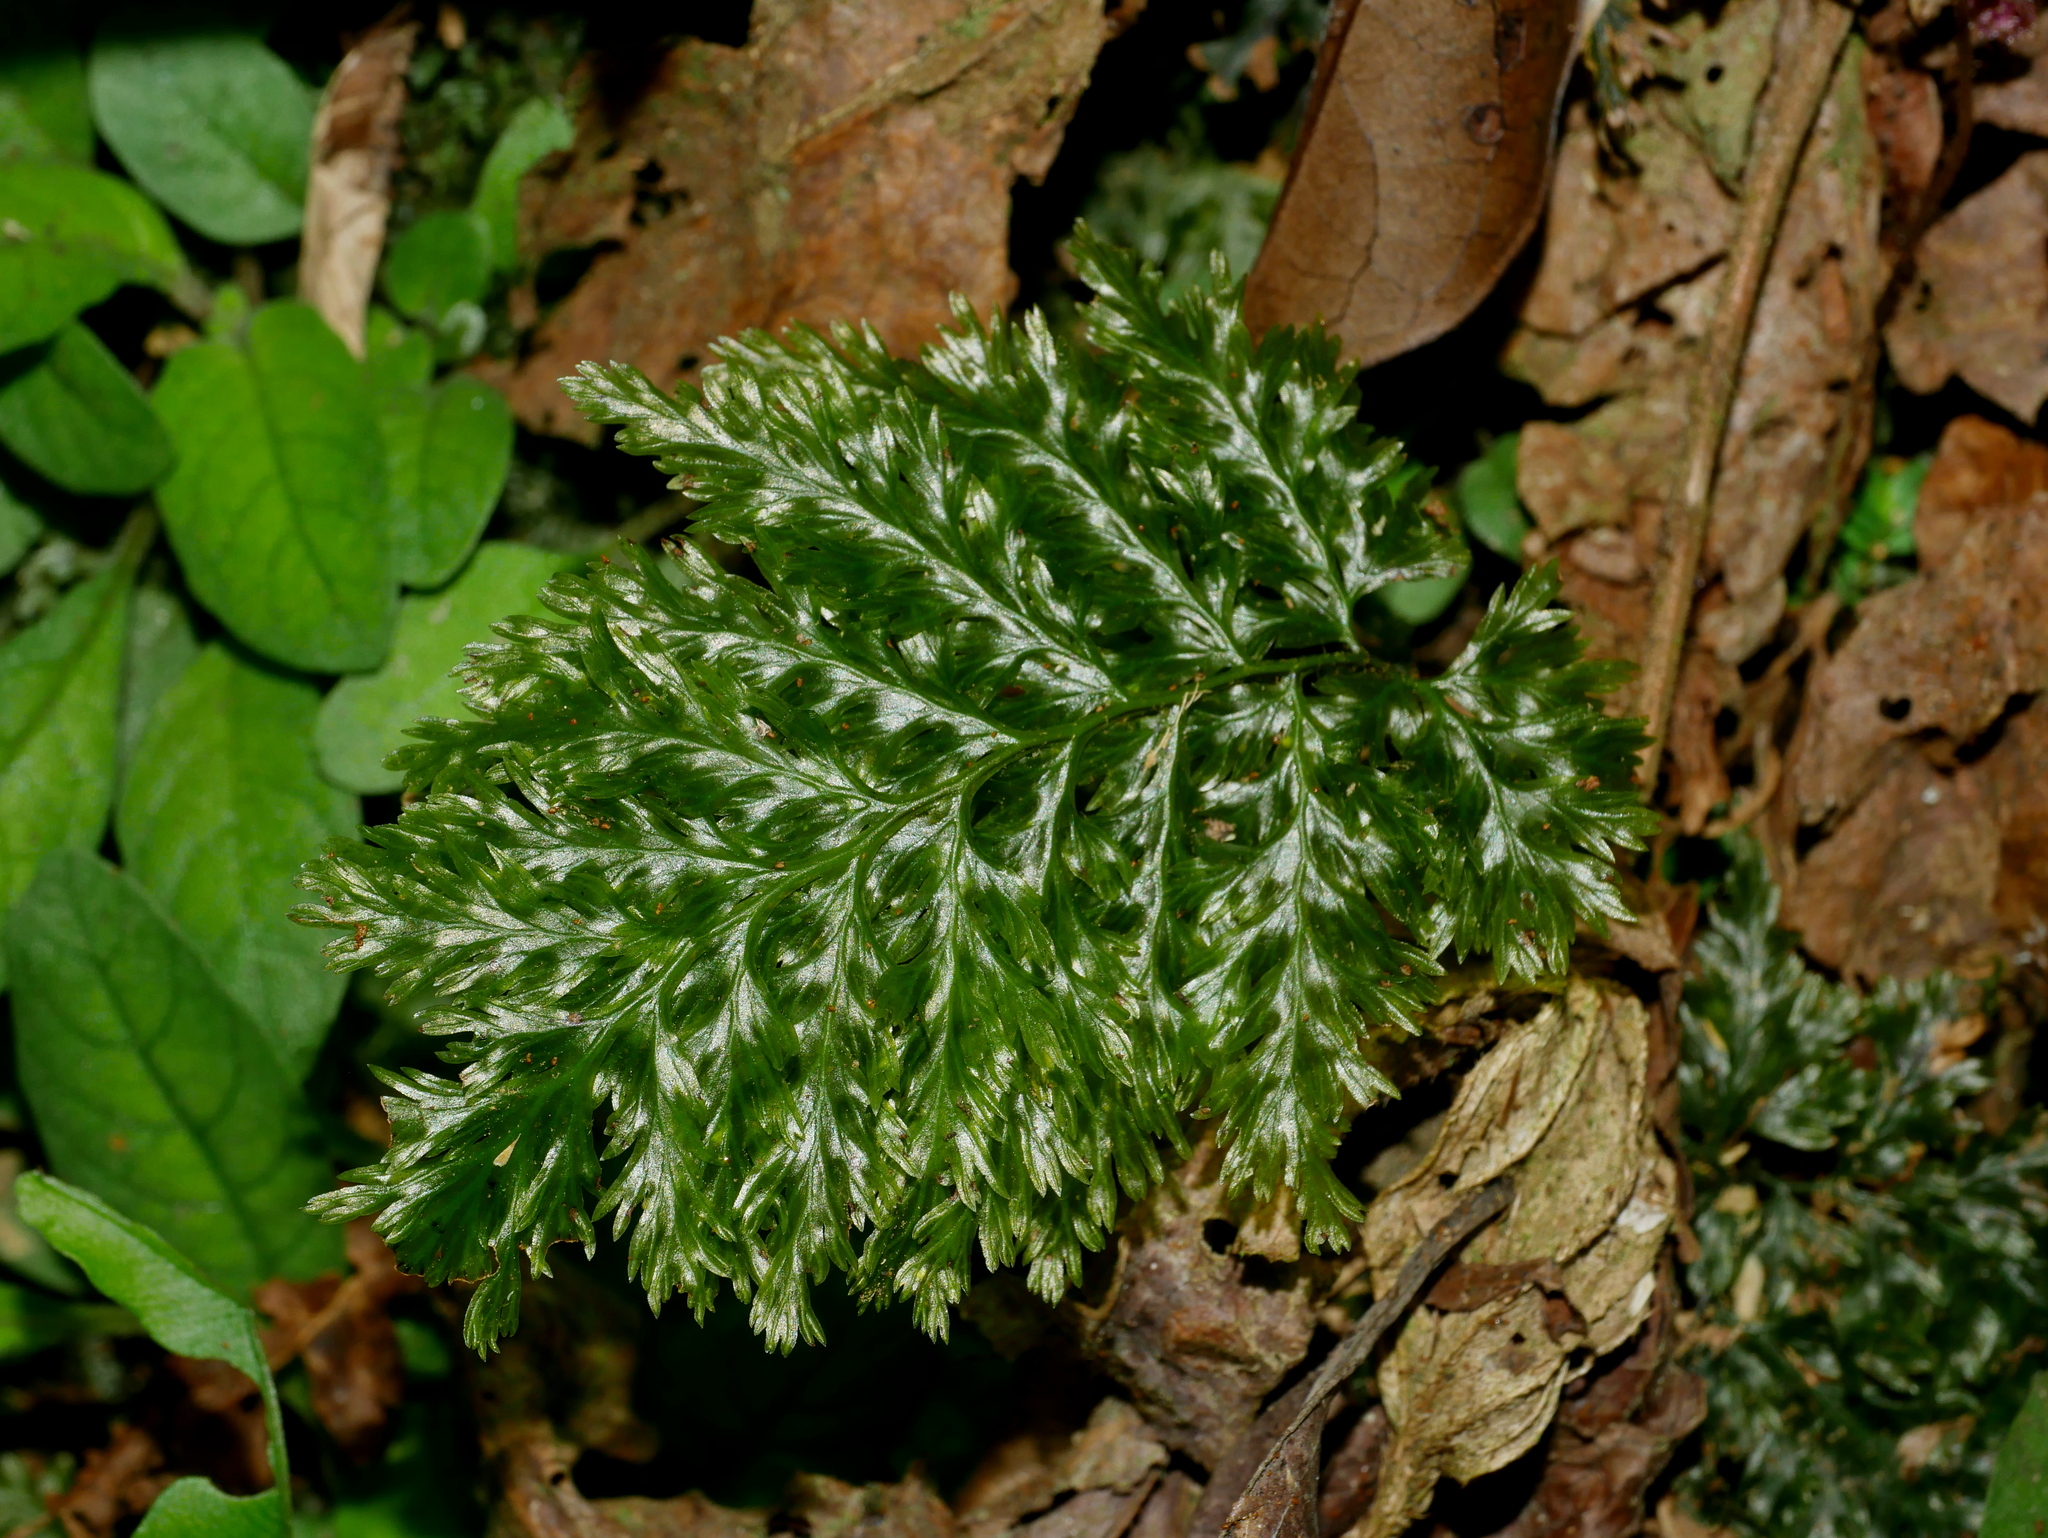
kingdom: Plantae
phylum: Tracheophyta
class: Polypodiopsida
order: Hymenophyllales
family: Hymenophyllaceae
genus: Abrodictyum
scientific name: Abrodictyum obscurum
